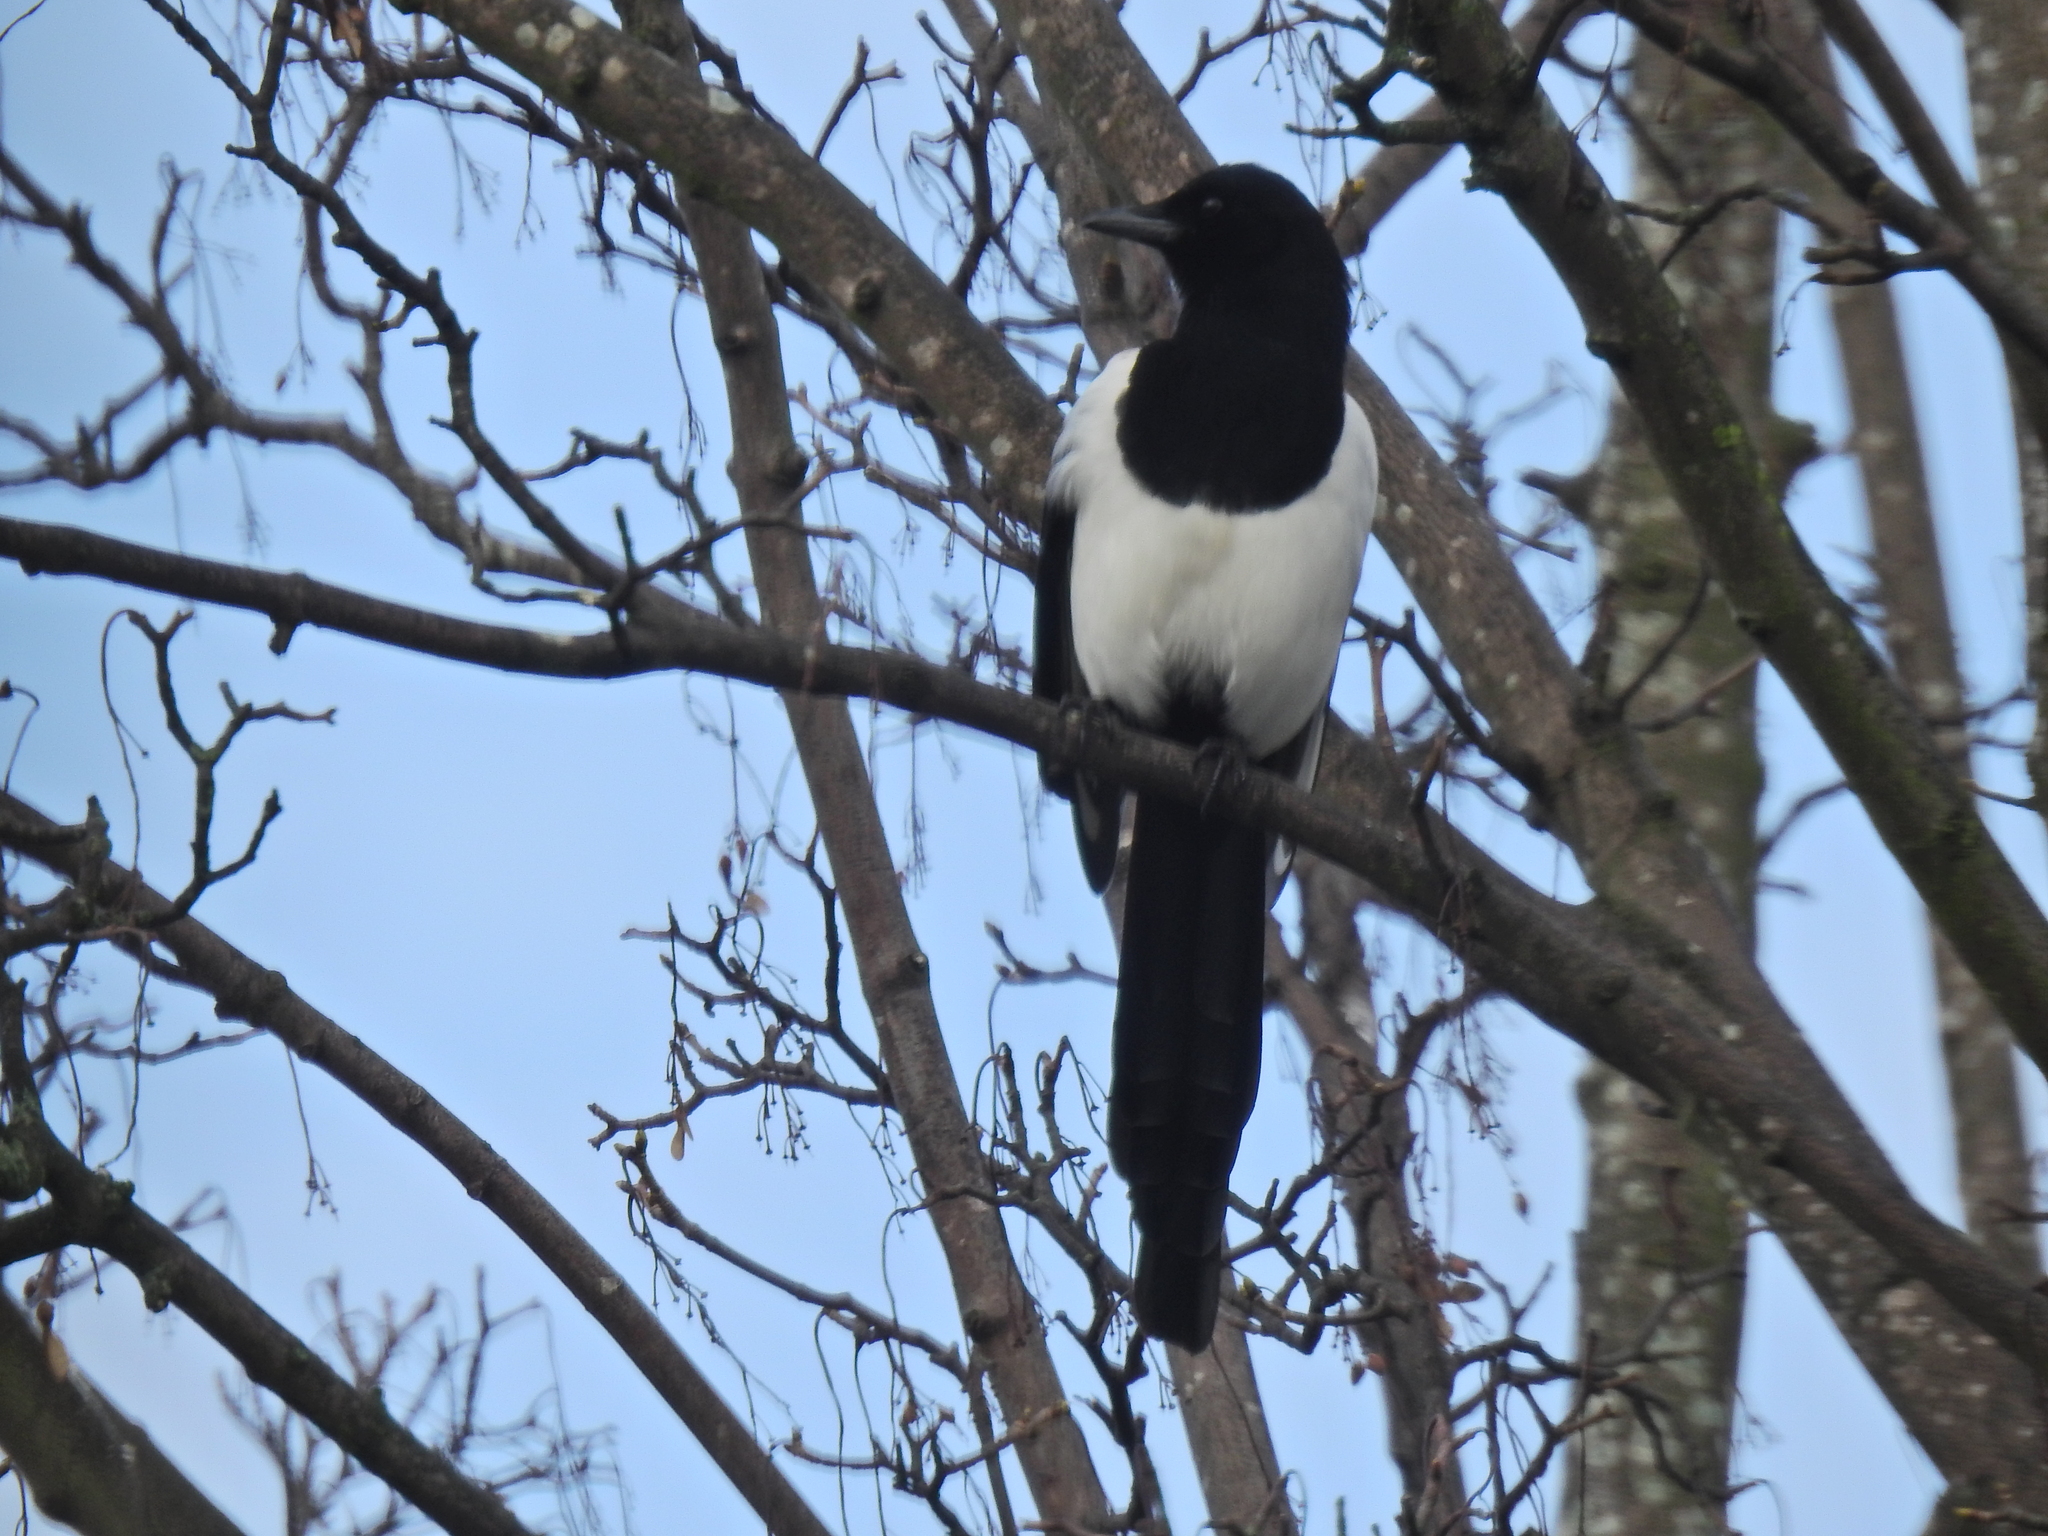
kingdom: Animalia
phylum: Chordata
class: Aves
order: Passeriformes
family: Corvidae
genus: Pica
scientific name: Pica pica
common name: Eurasian magpie
